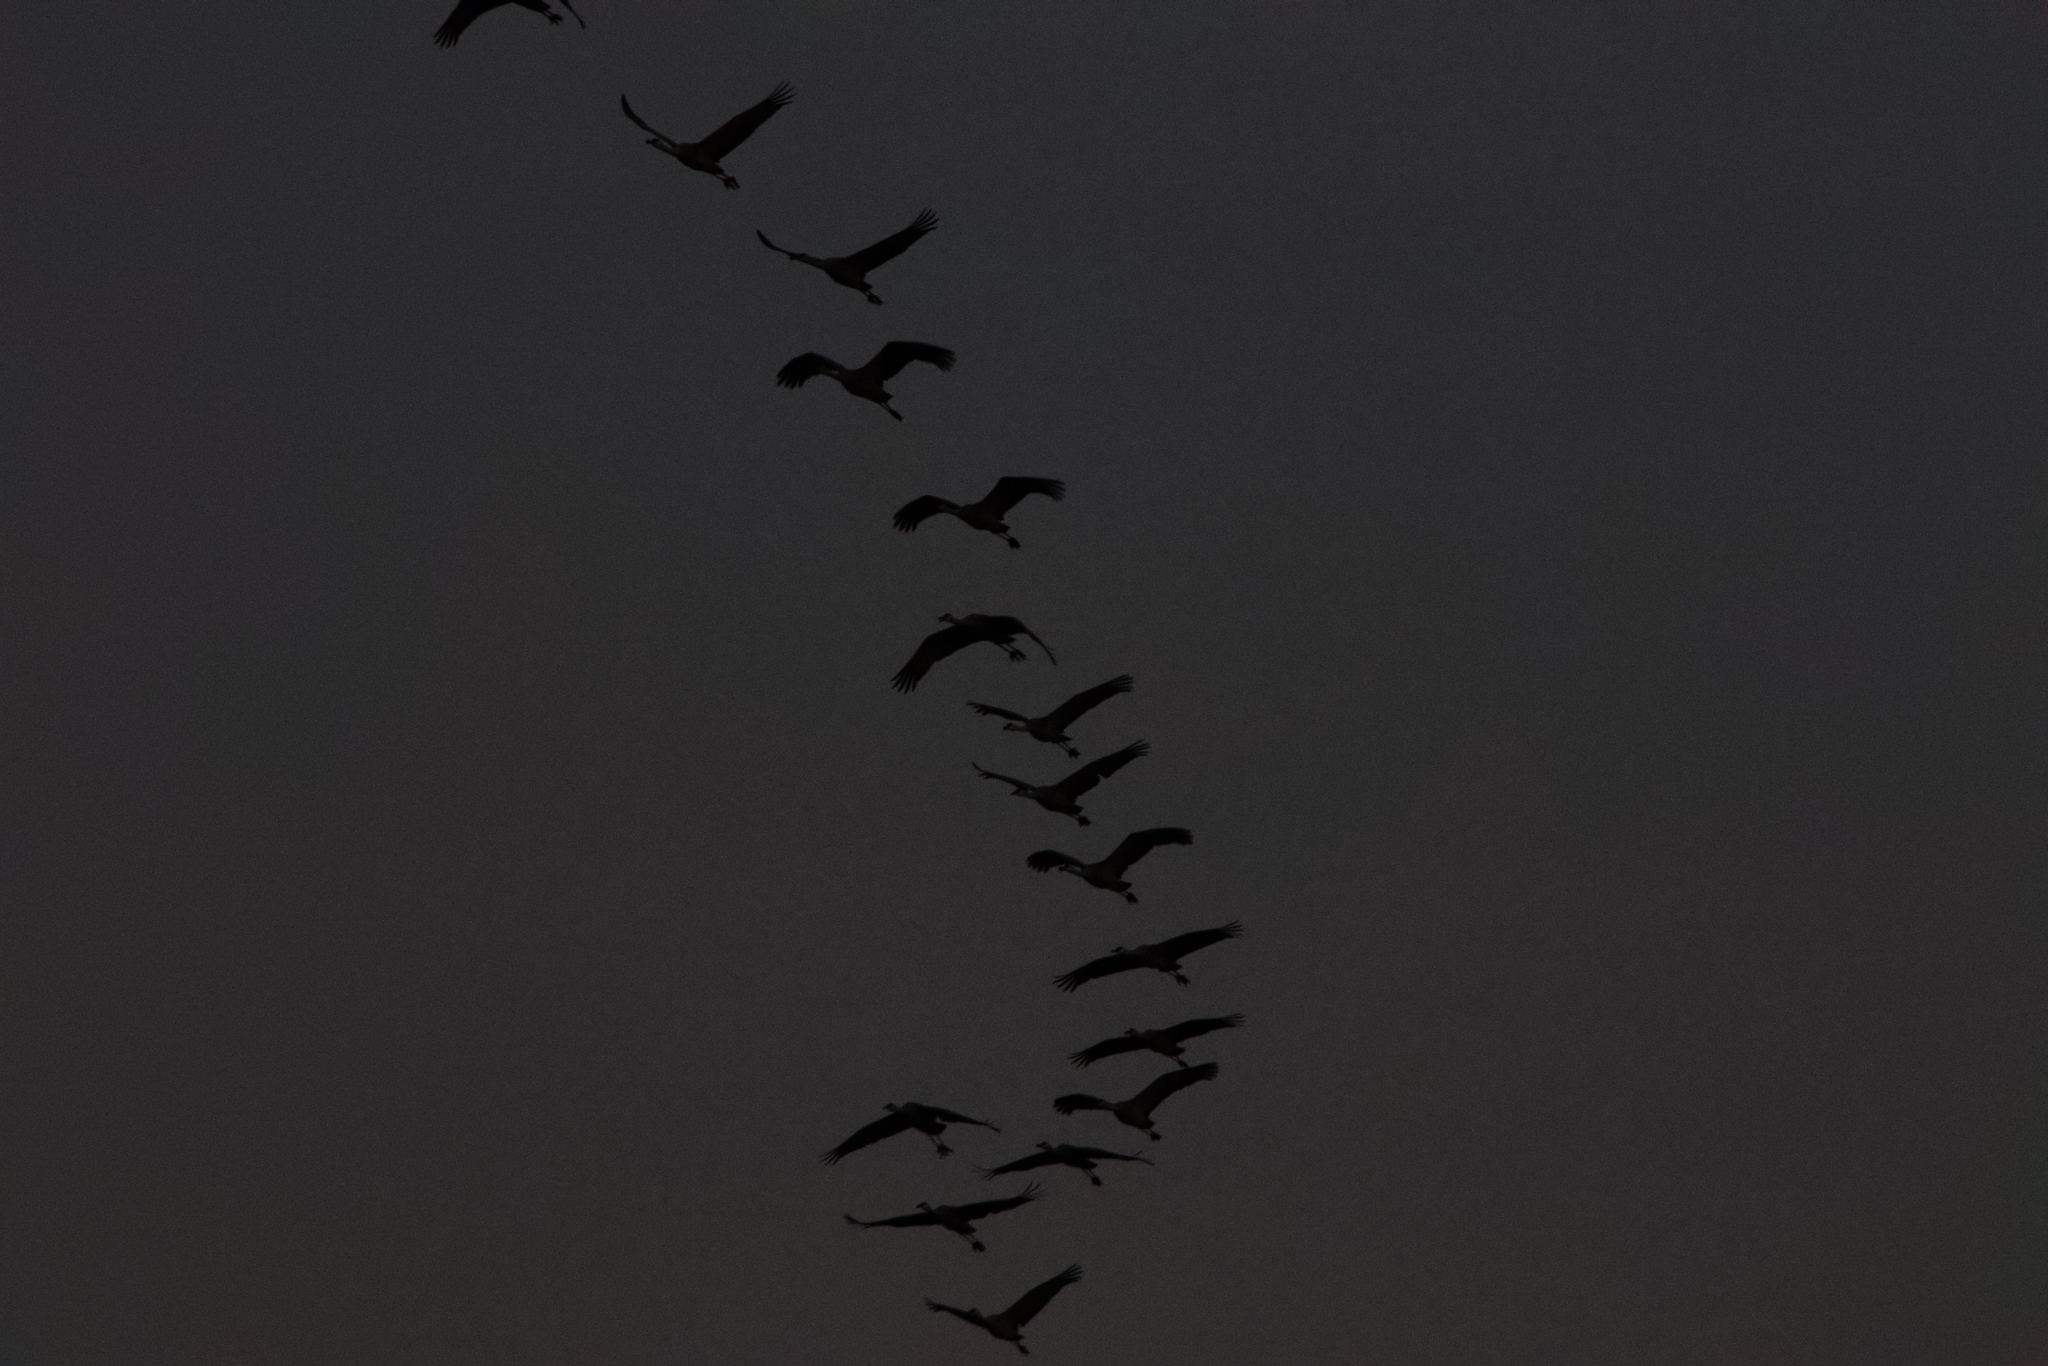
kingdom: Animalia
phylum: Chordata
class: Aves
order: Gruiformes
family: Gruidae
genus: Grus
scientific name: Grus canadensis
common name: Sandhill crane
